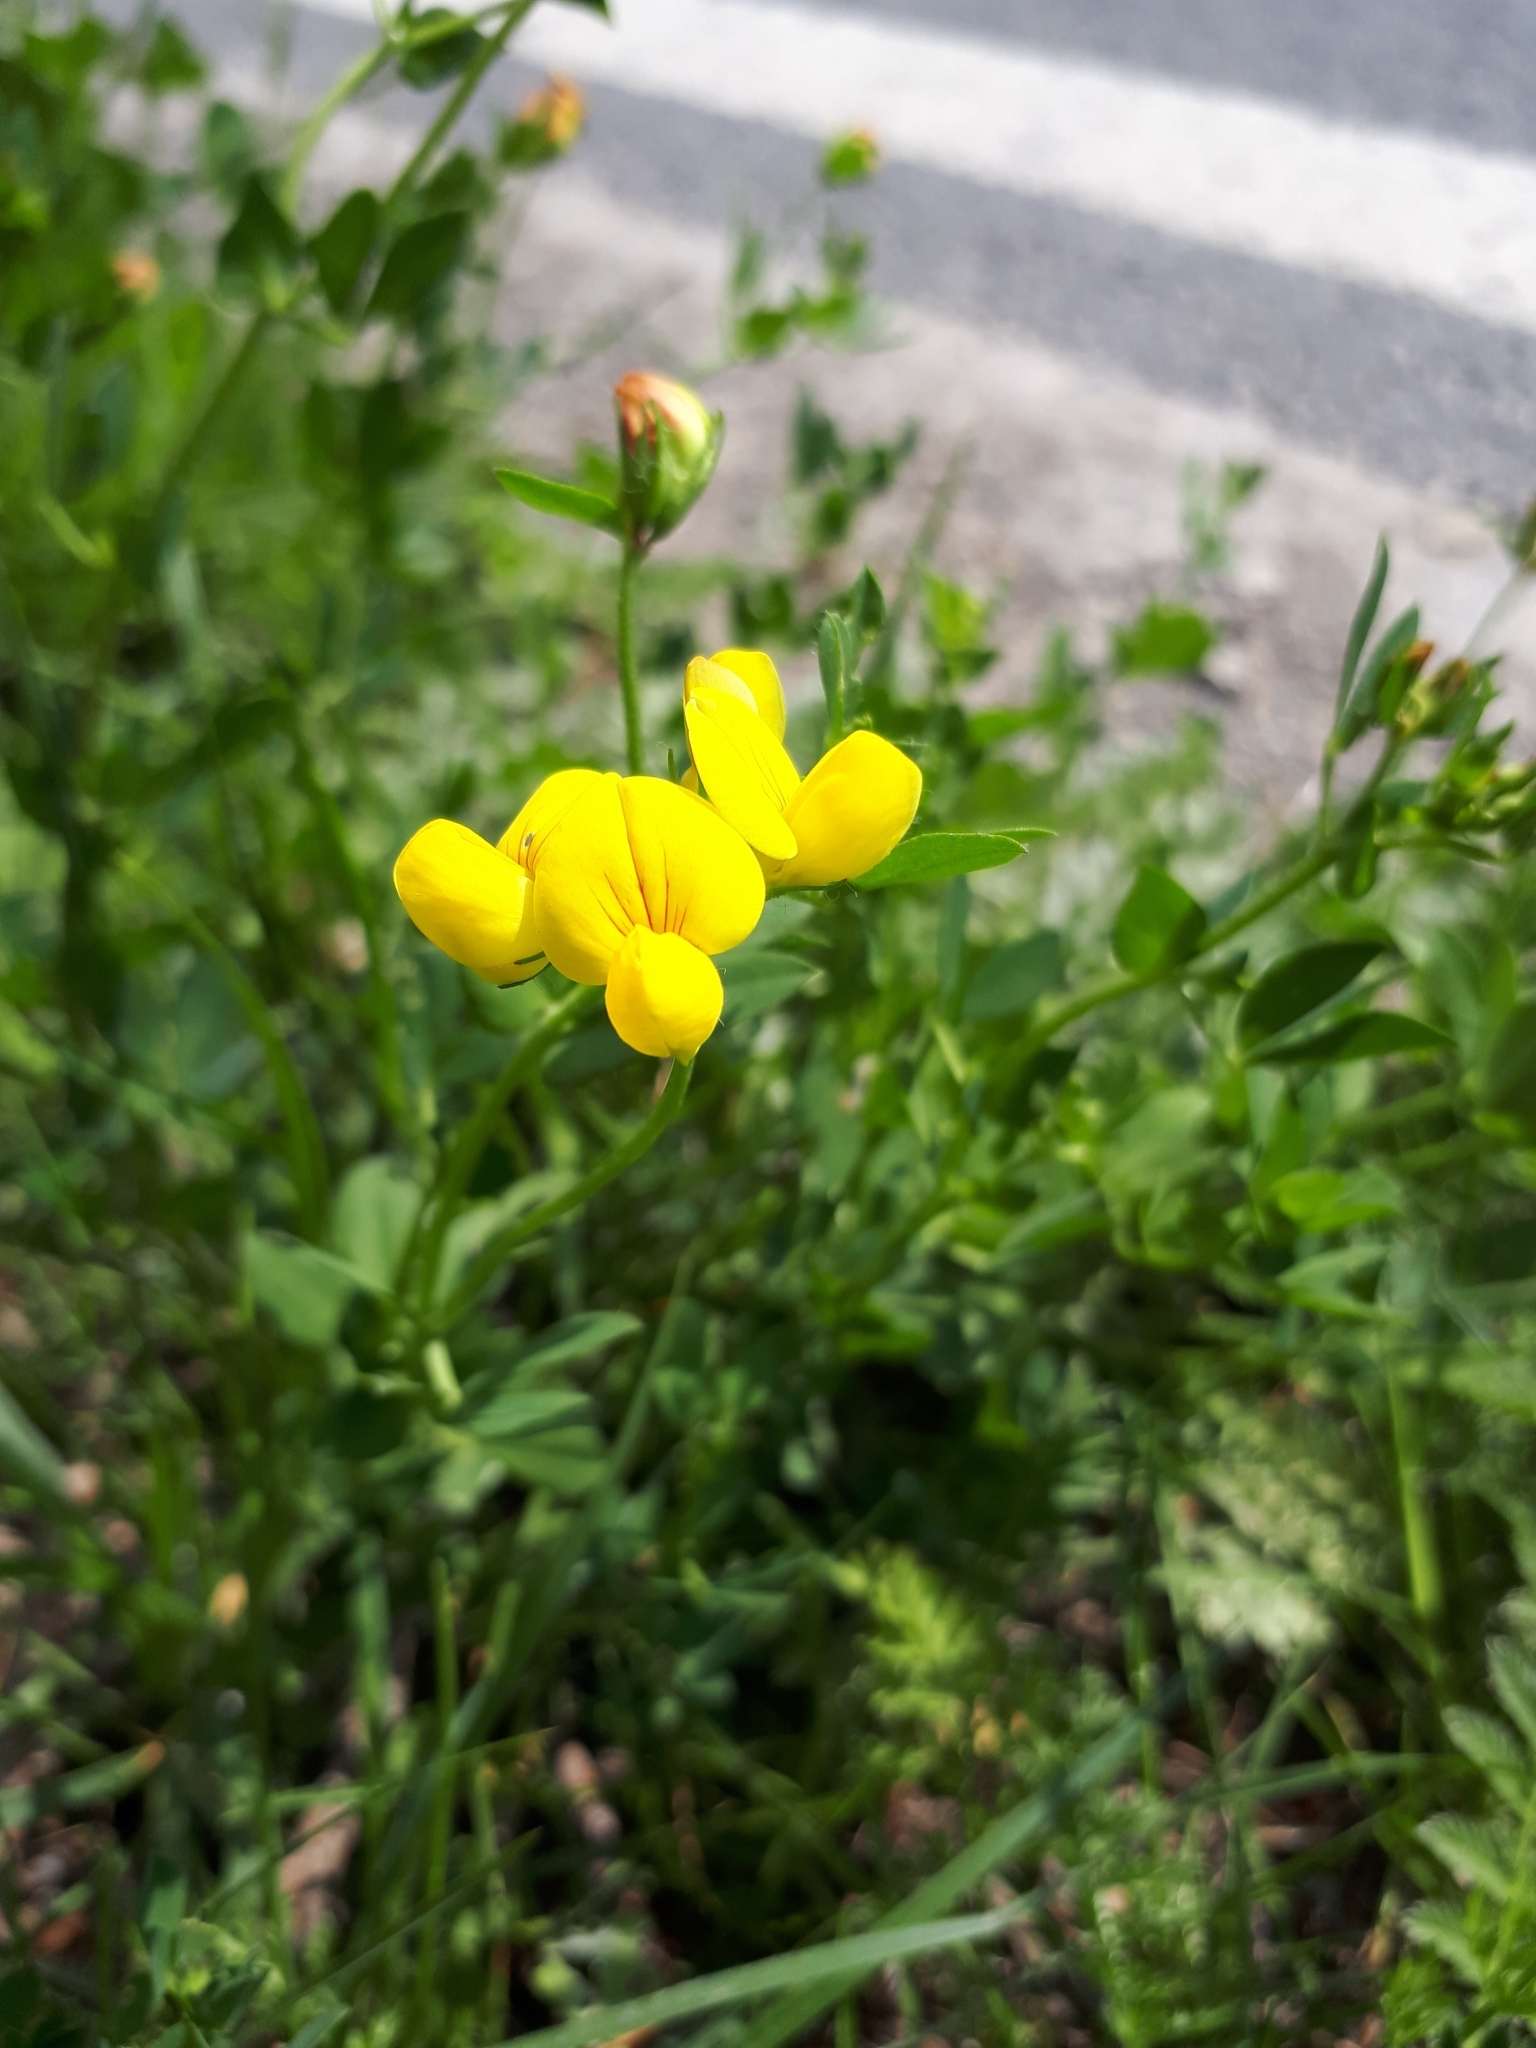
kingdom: Plantae
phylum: Tracheophyta
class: Magnoliopsida
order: Fabales
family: Fabaceae
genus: Lotus
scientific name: Lotus corniculatus
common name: Common bird's-foot-trefoil
